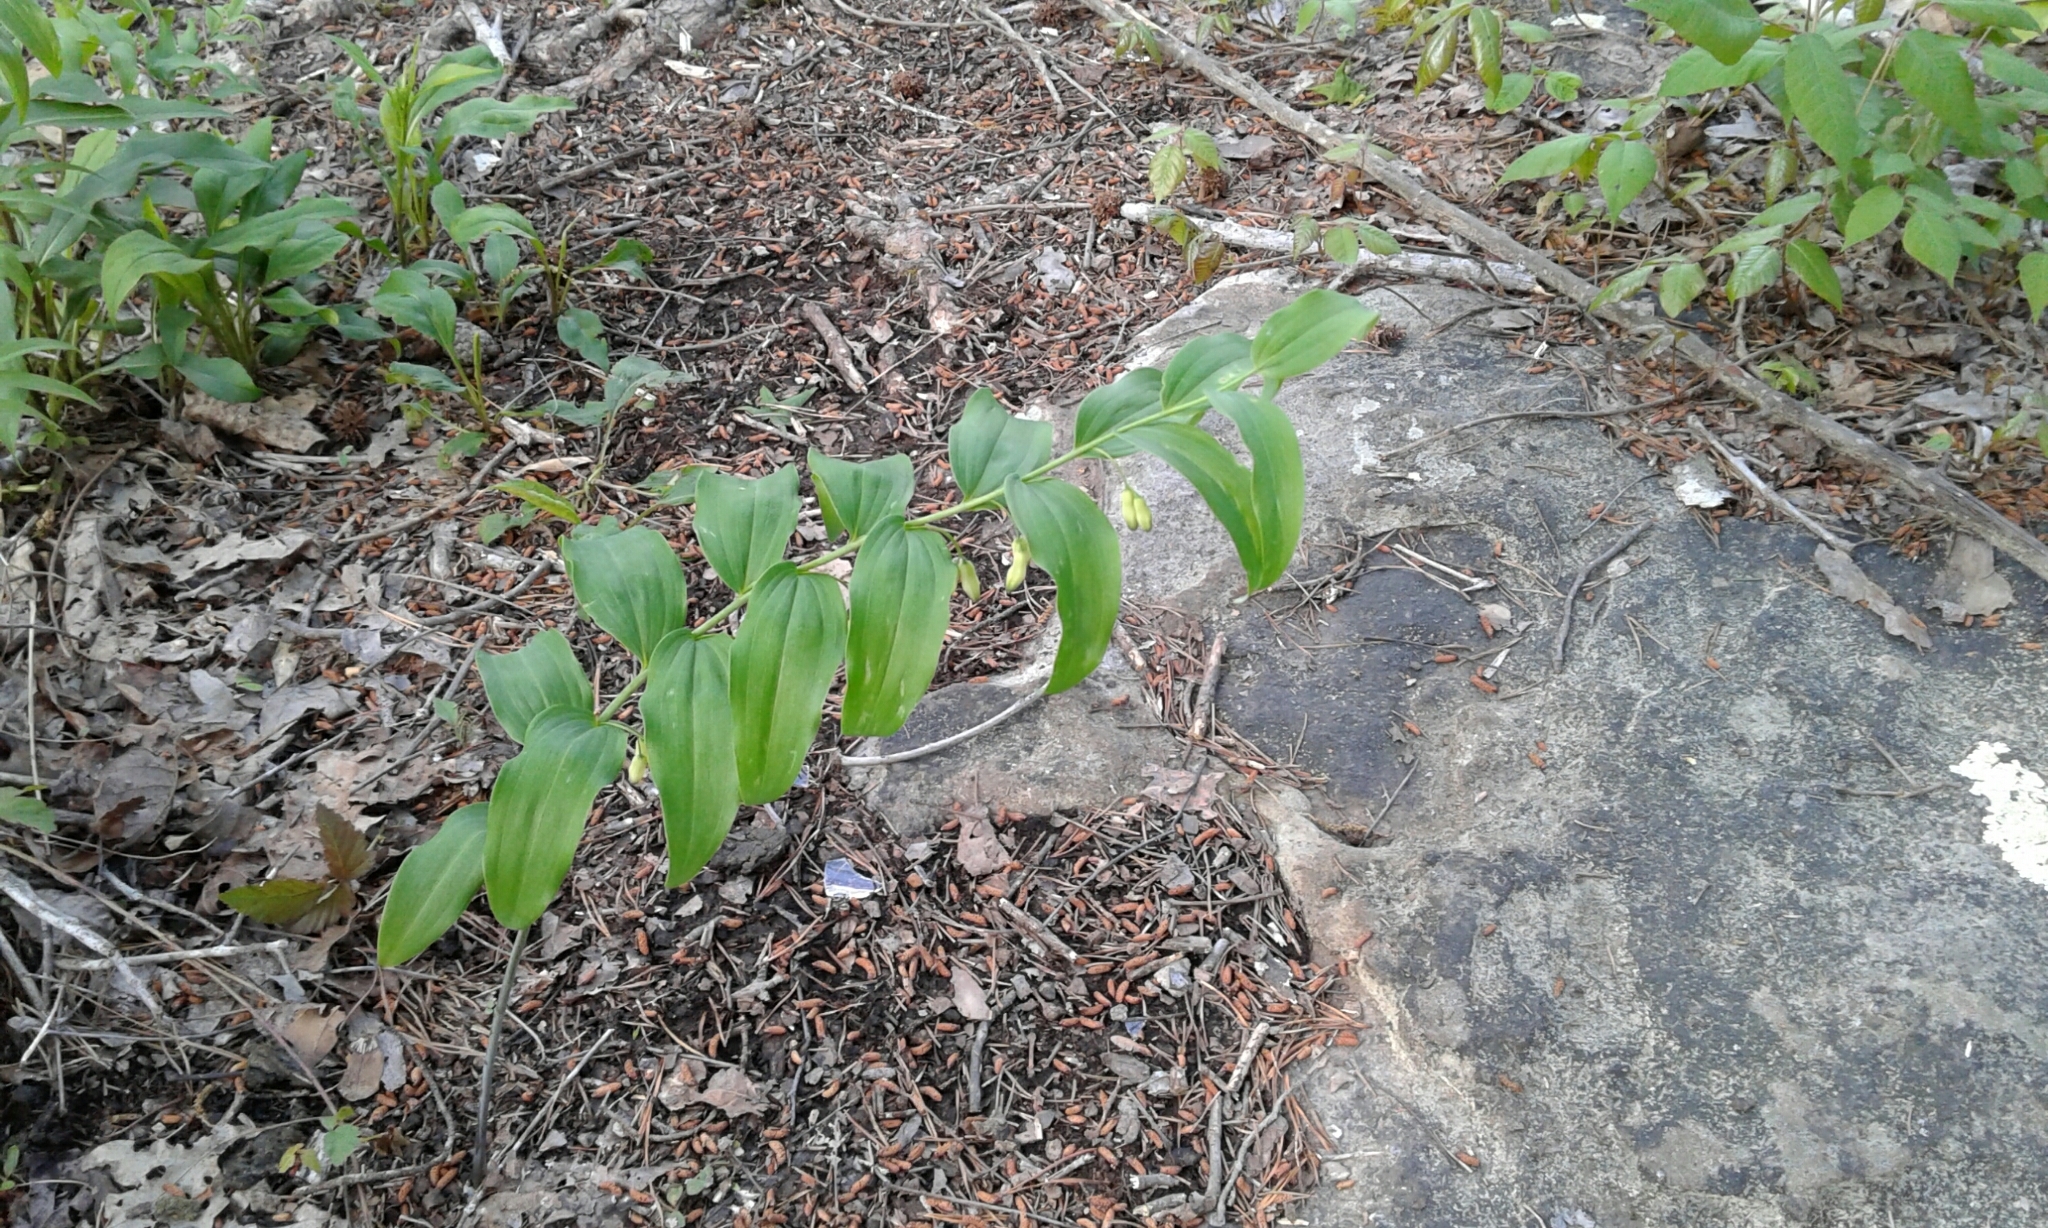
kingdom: Plantae
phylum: Tracheophyta
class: Liliopsida
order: Asparagales
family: Asparagaceae
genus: Polygonatum
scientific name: Polygonatum biflorum
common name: American solomon's-seal
